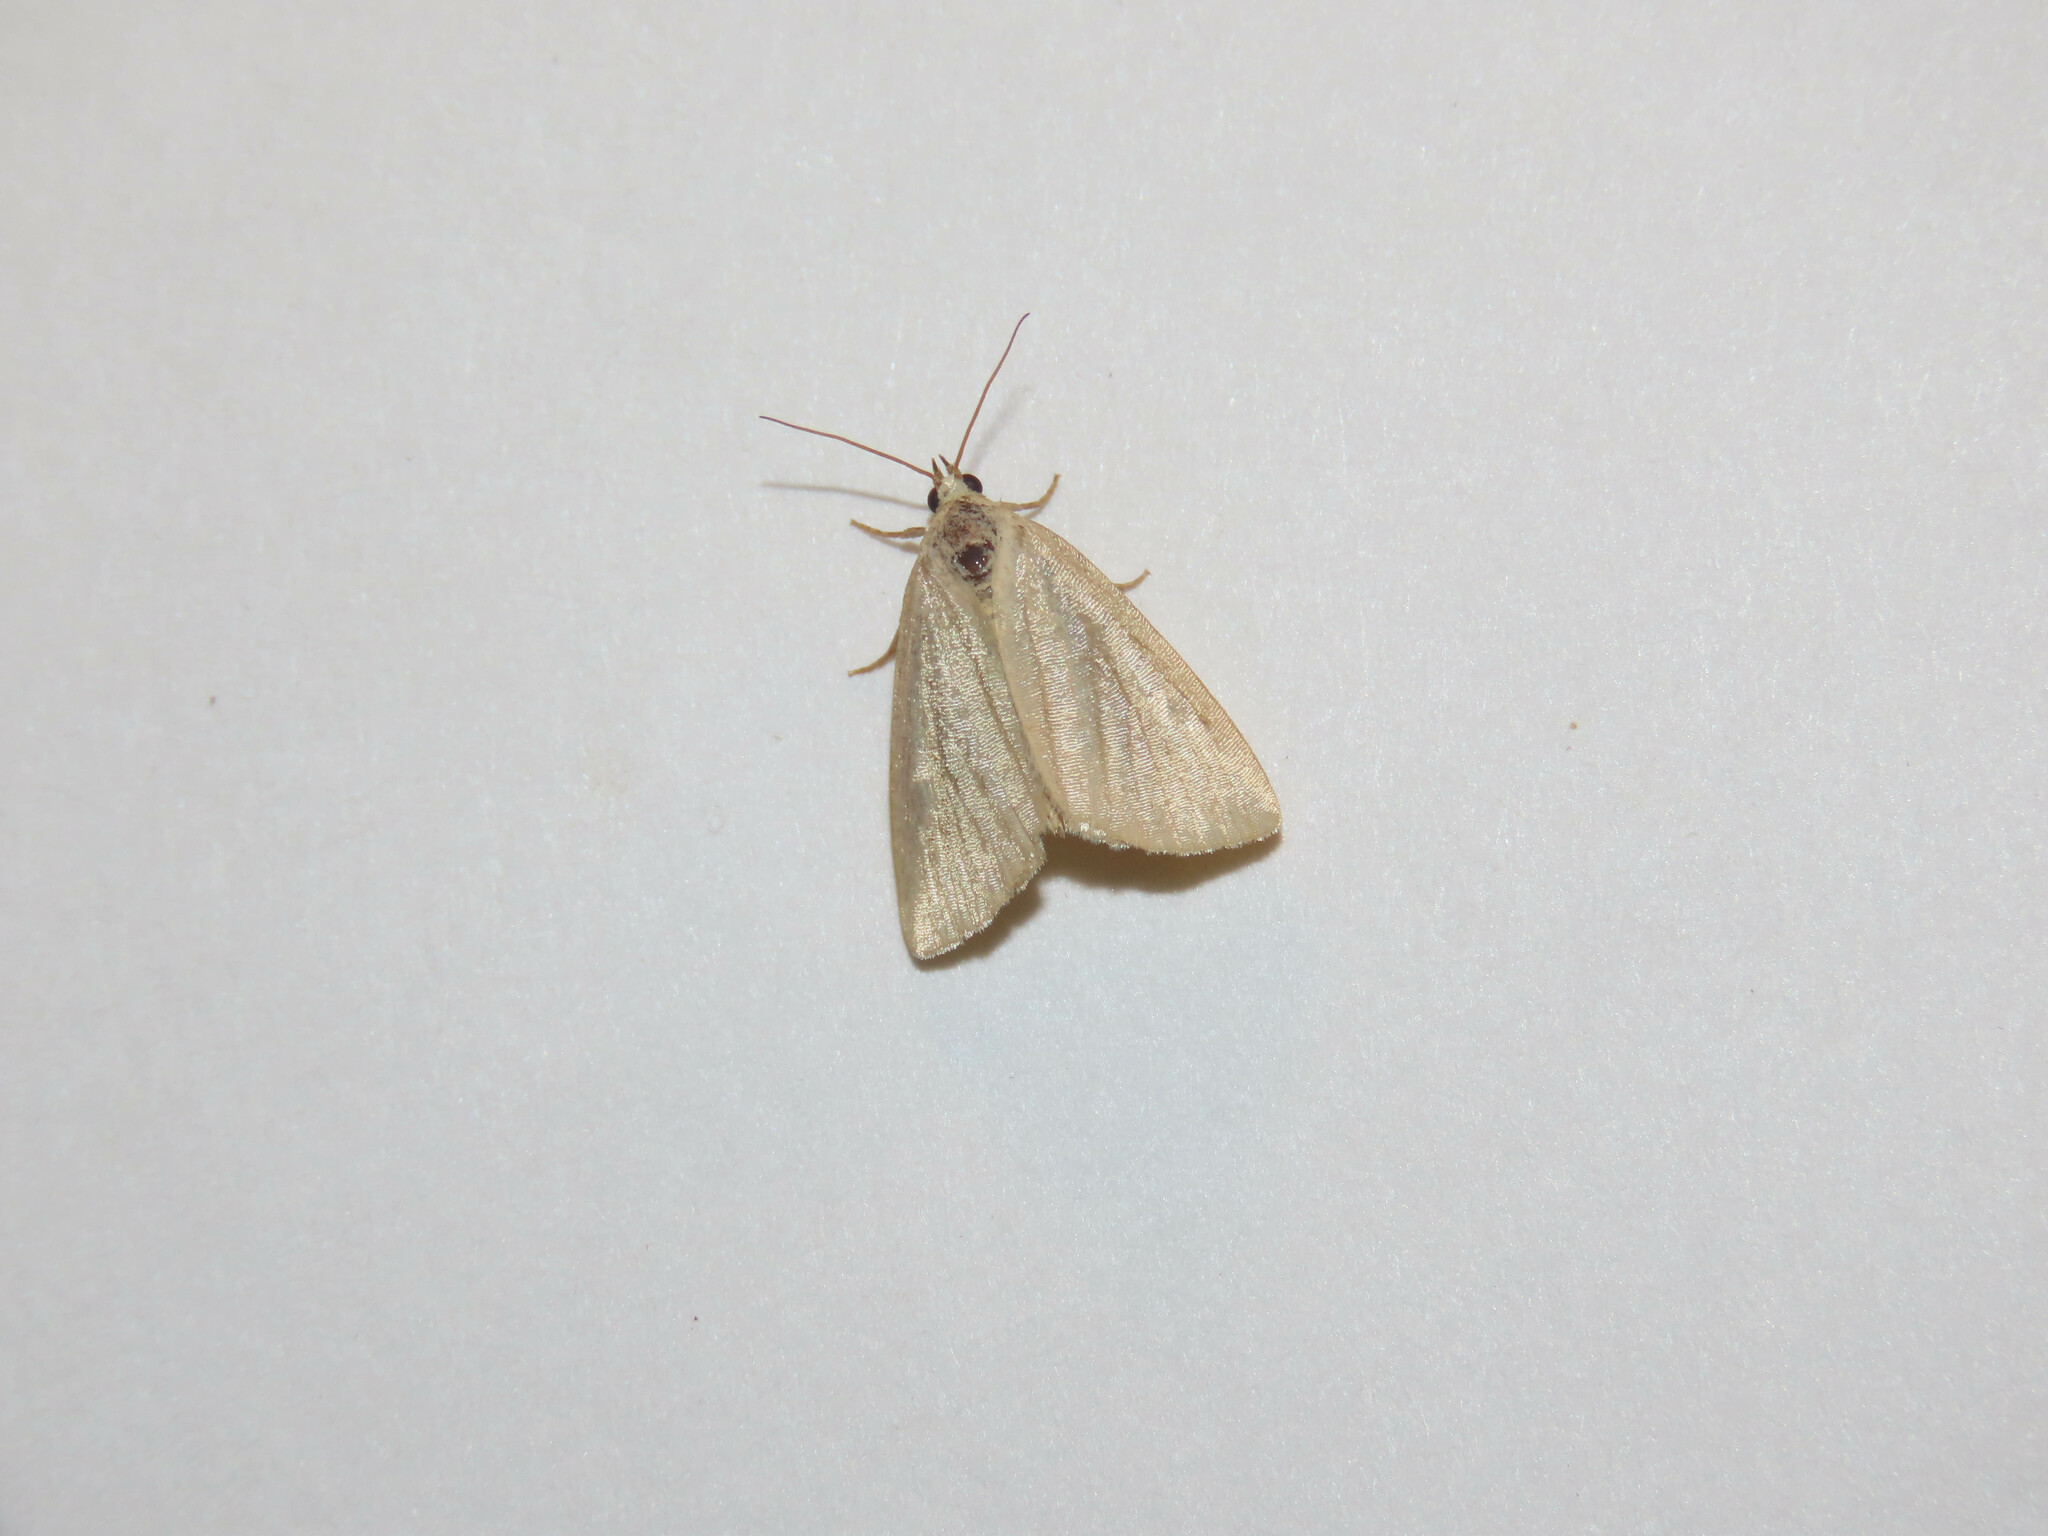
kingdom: Animalia
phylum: Arthropoda
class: Insecta
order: Lepidoptera
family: Noctuidae
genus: Protodeltote
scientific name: Protodeltote albidula
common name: Pale glyph
